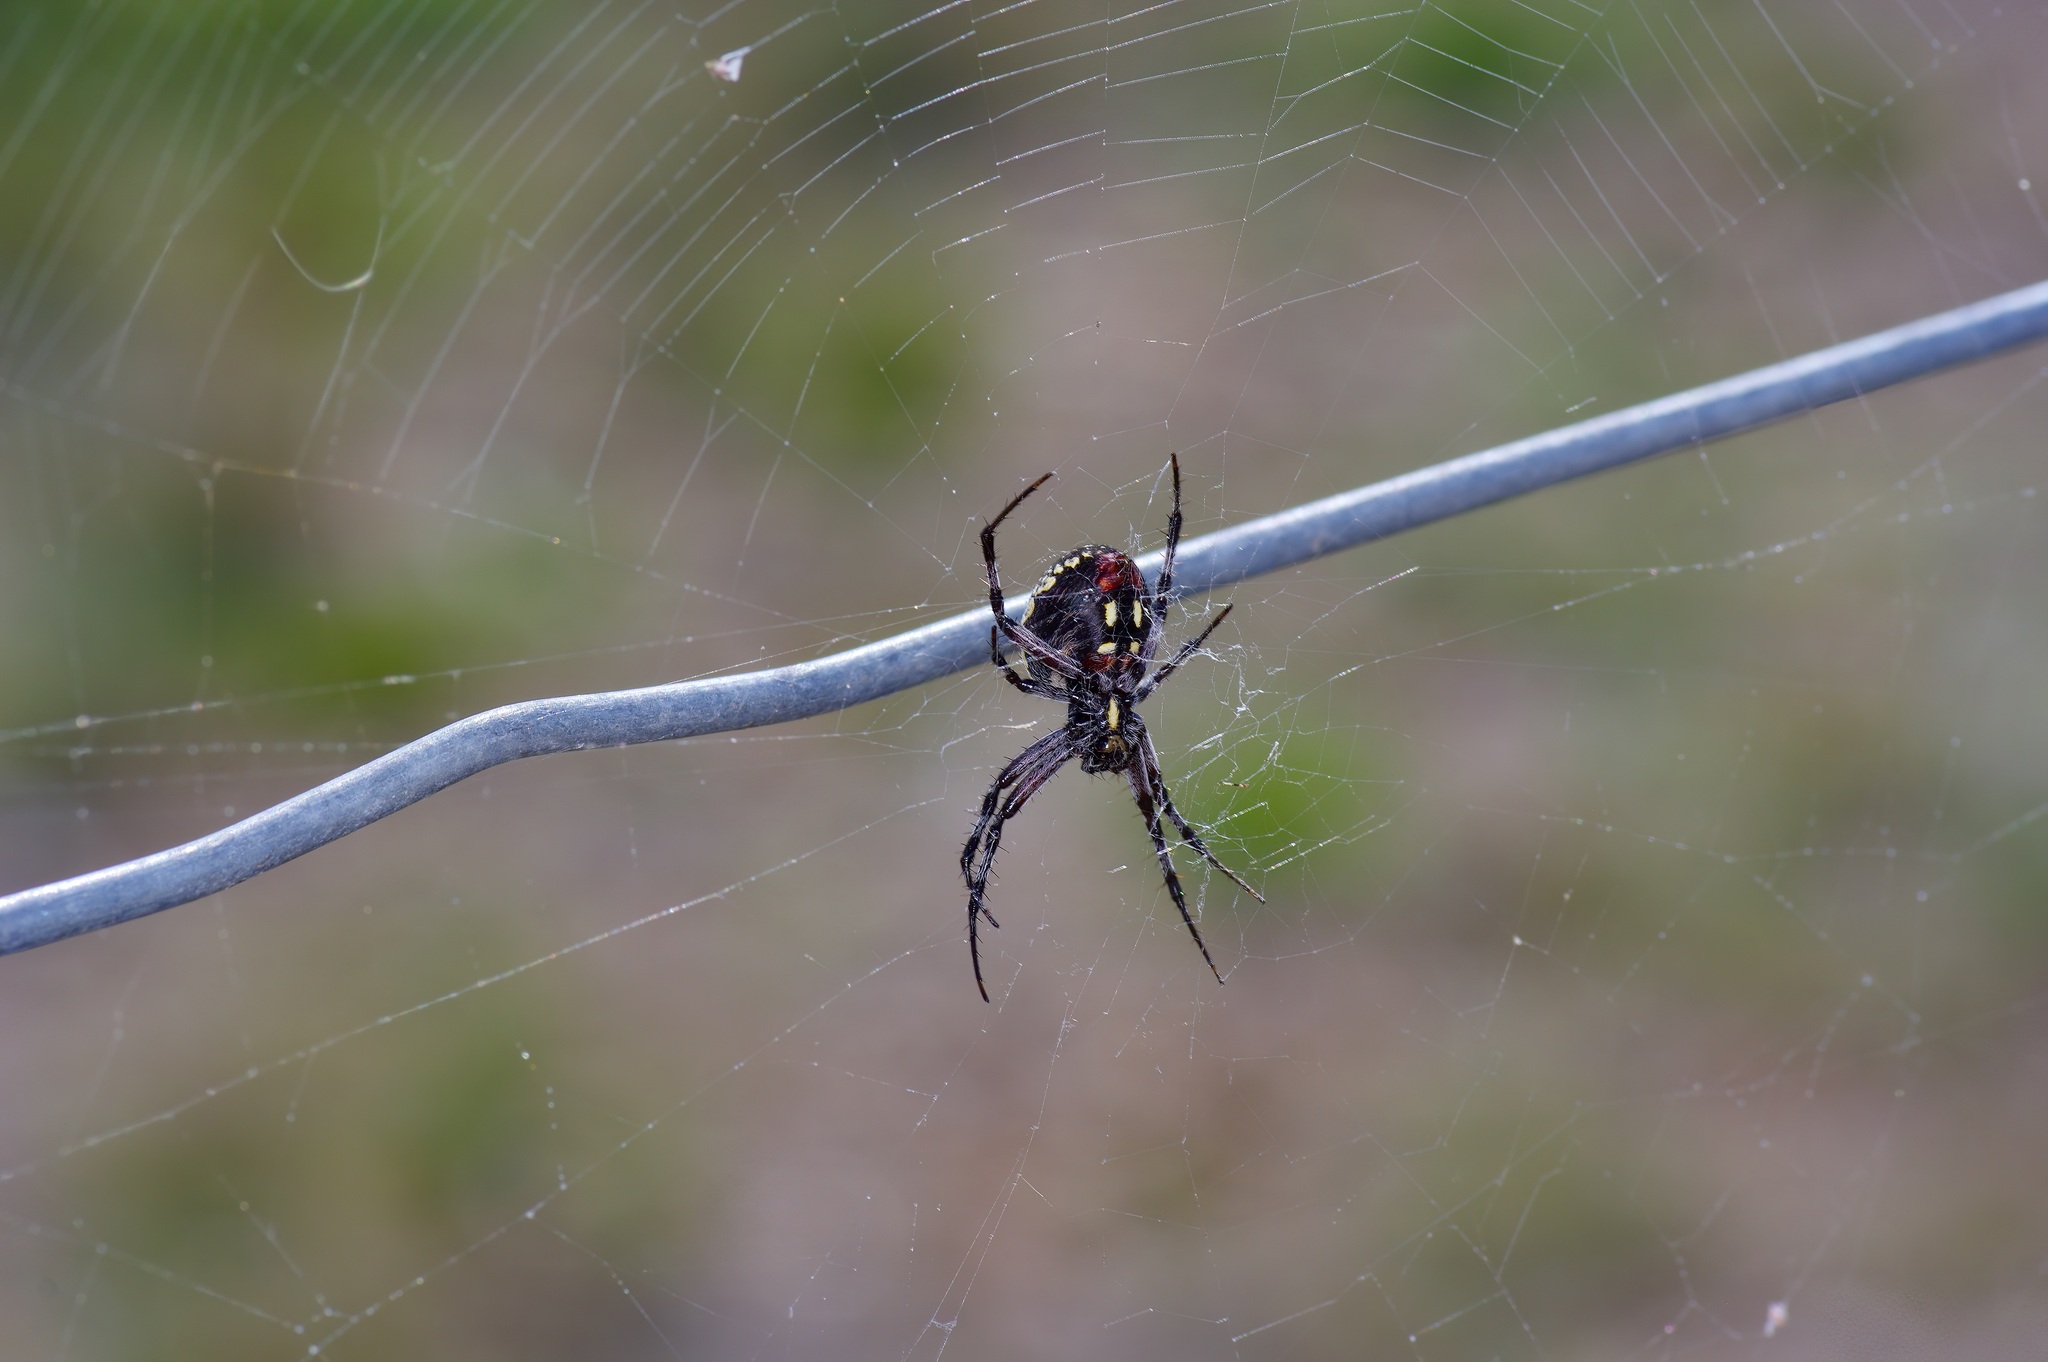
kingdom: Animalia
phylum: Arthropoda
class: Arachnida
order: Araneae
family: Araneidae
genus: Neoscona
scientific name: Neoscona oaxacensis
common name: Orb weavers
